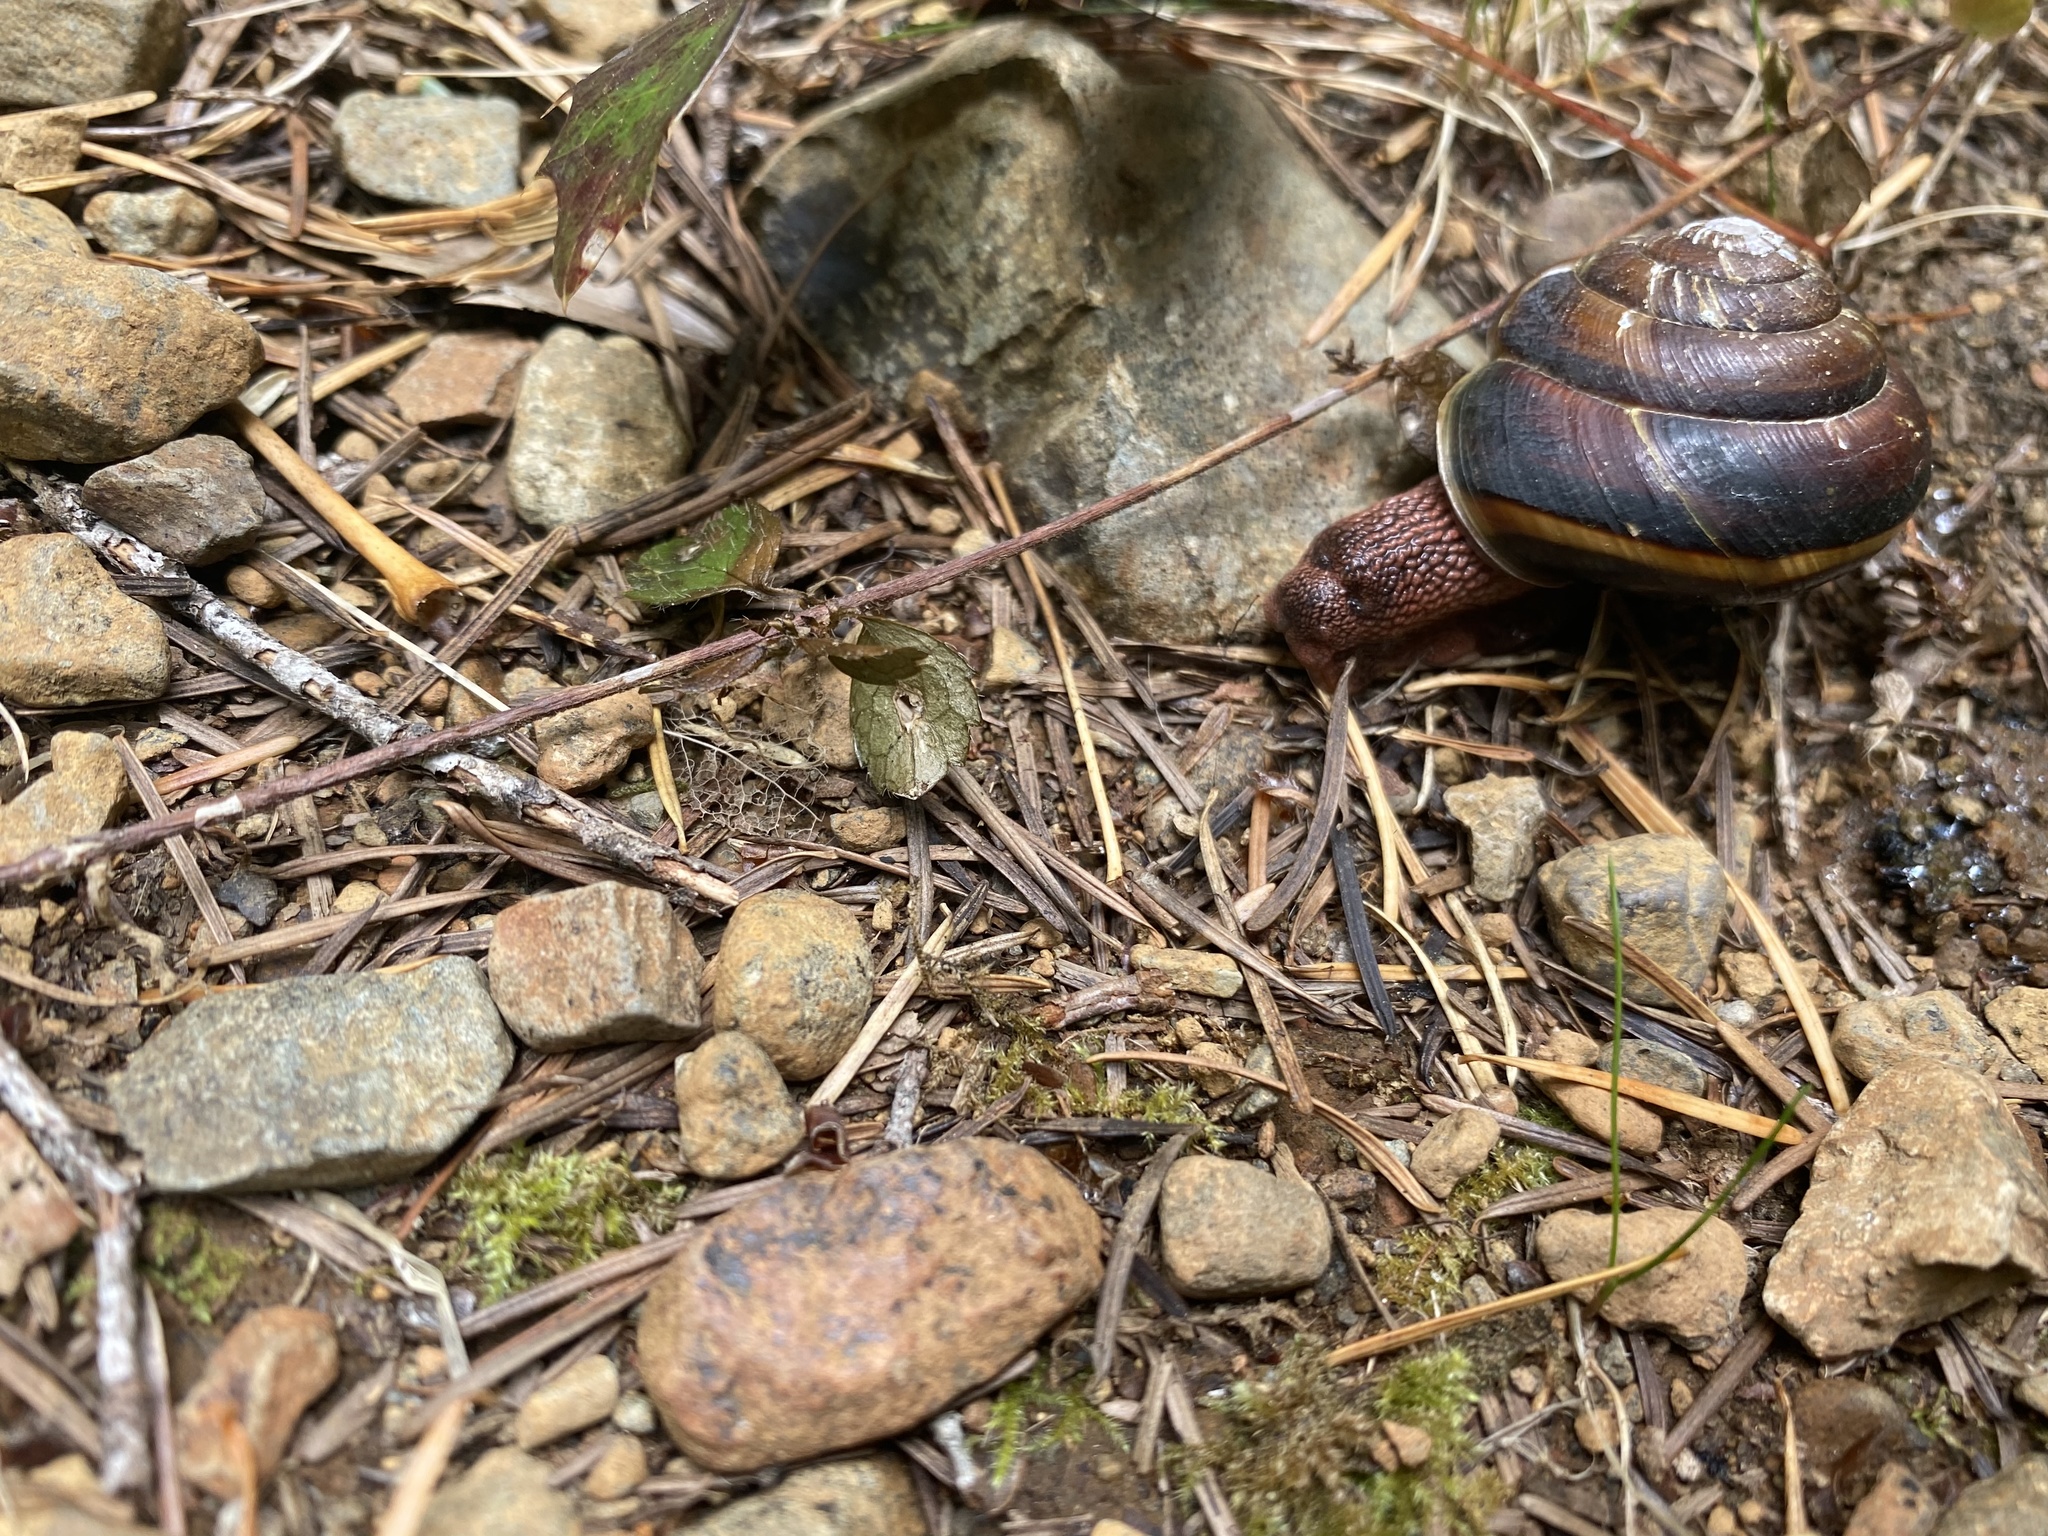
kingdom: Animalia
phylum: Mollusca
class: Gastropoda
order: Stylommatophora
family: Xanthonychidae
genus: Monadenia
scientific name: Monadenia fidelis
